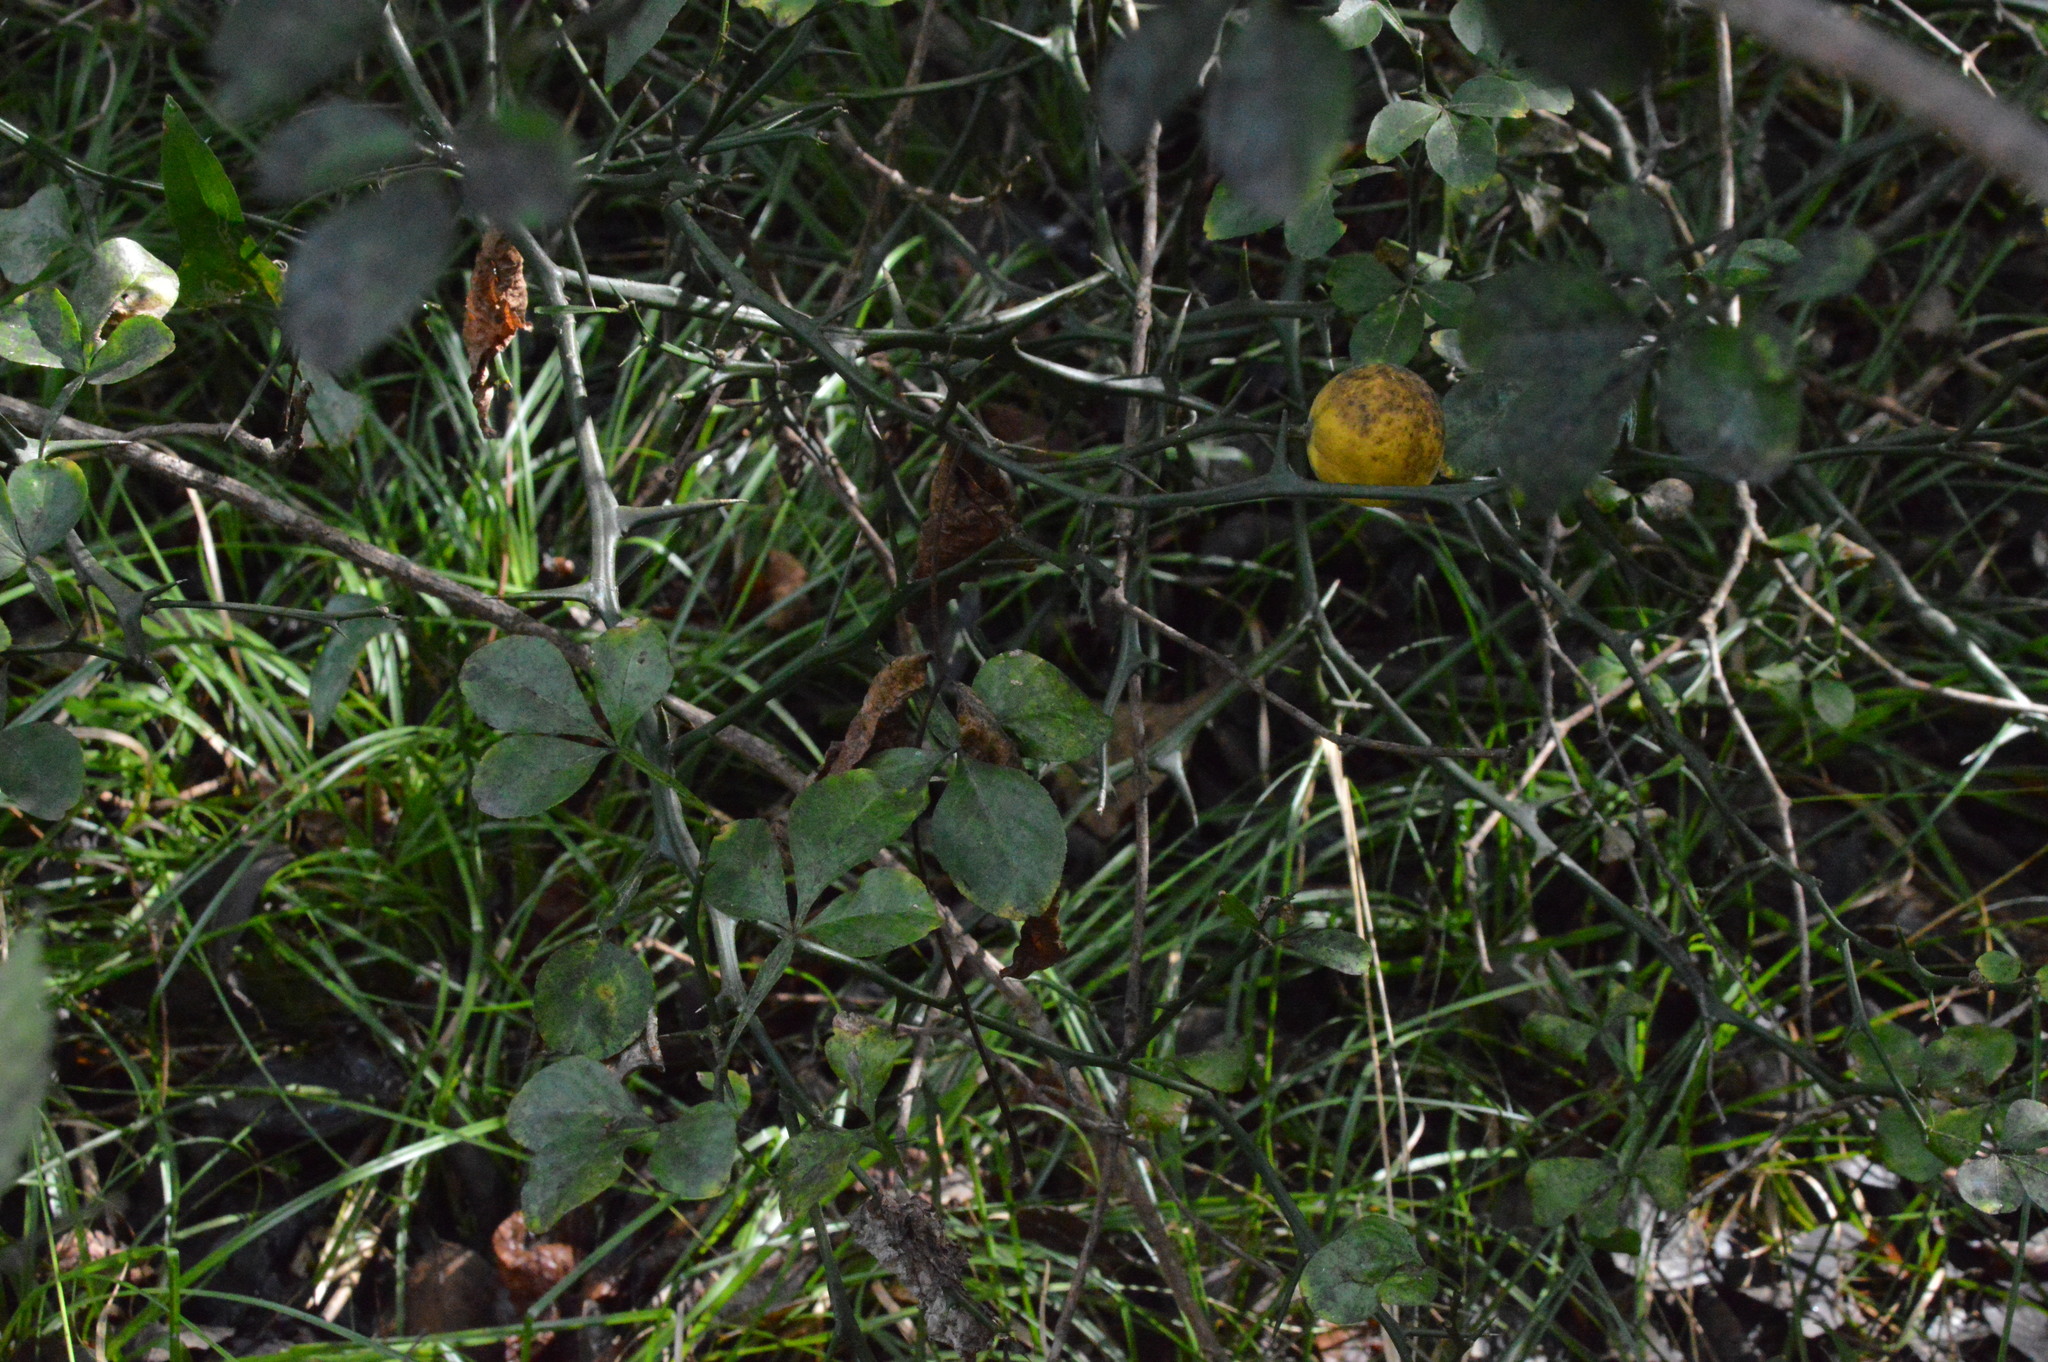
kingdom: Plantae
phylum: Tracheophyta
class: Magnoliopsida
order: Sapindales
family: Rutaceae
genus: Citrus
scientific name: Citrus trifoliata
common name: Japanese bitter-orange
